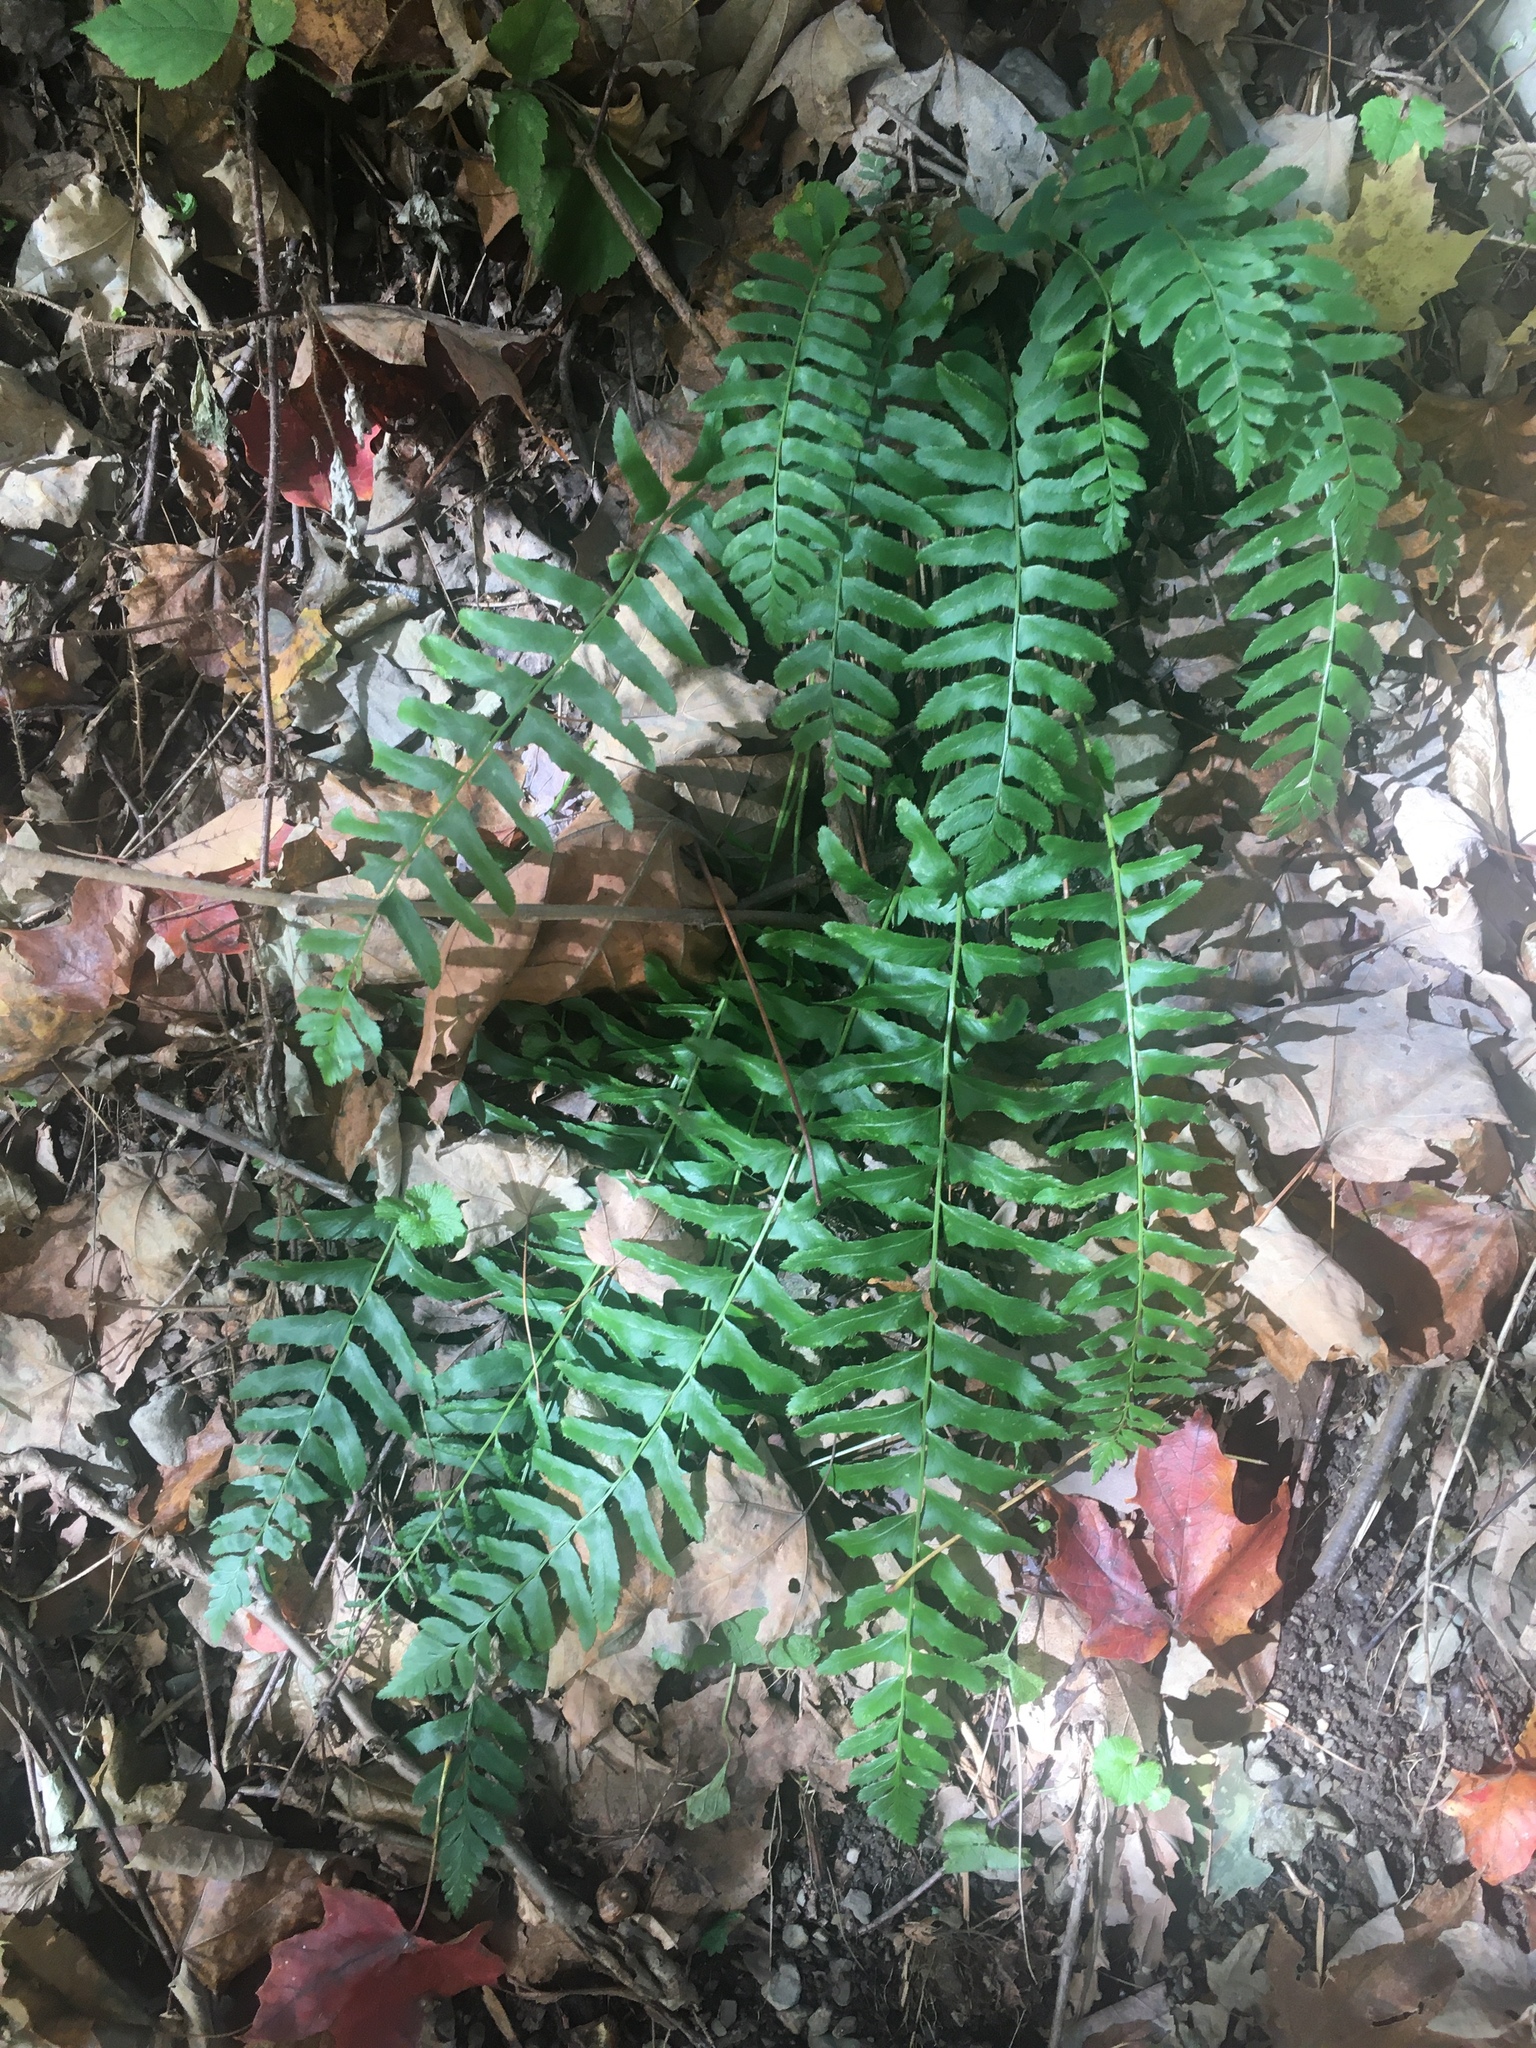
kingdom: Plantae
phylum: Tracheophyta
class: Polypodiopsida
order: Polypodiales
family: Dryopteridaceae
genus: Polystichum
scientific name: Polystichum acrostichoides
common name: Christmas fern
